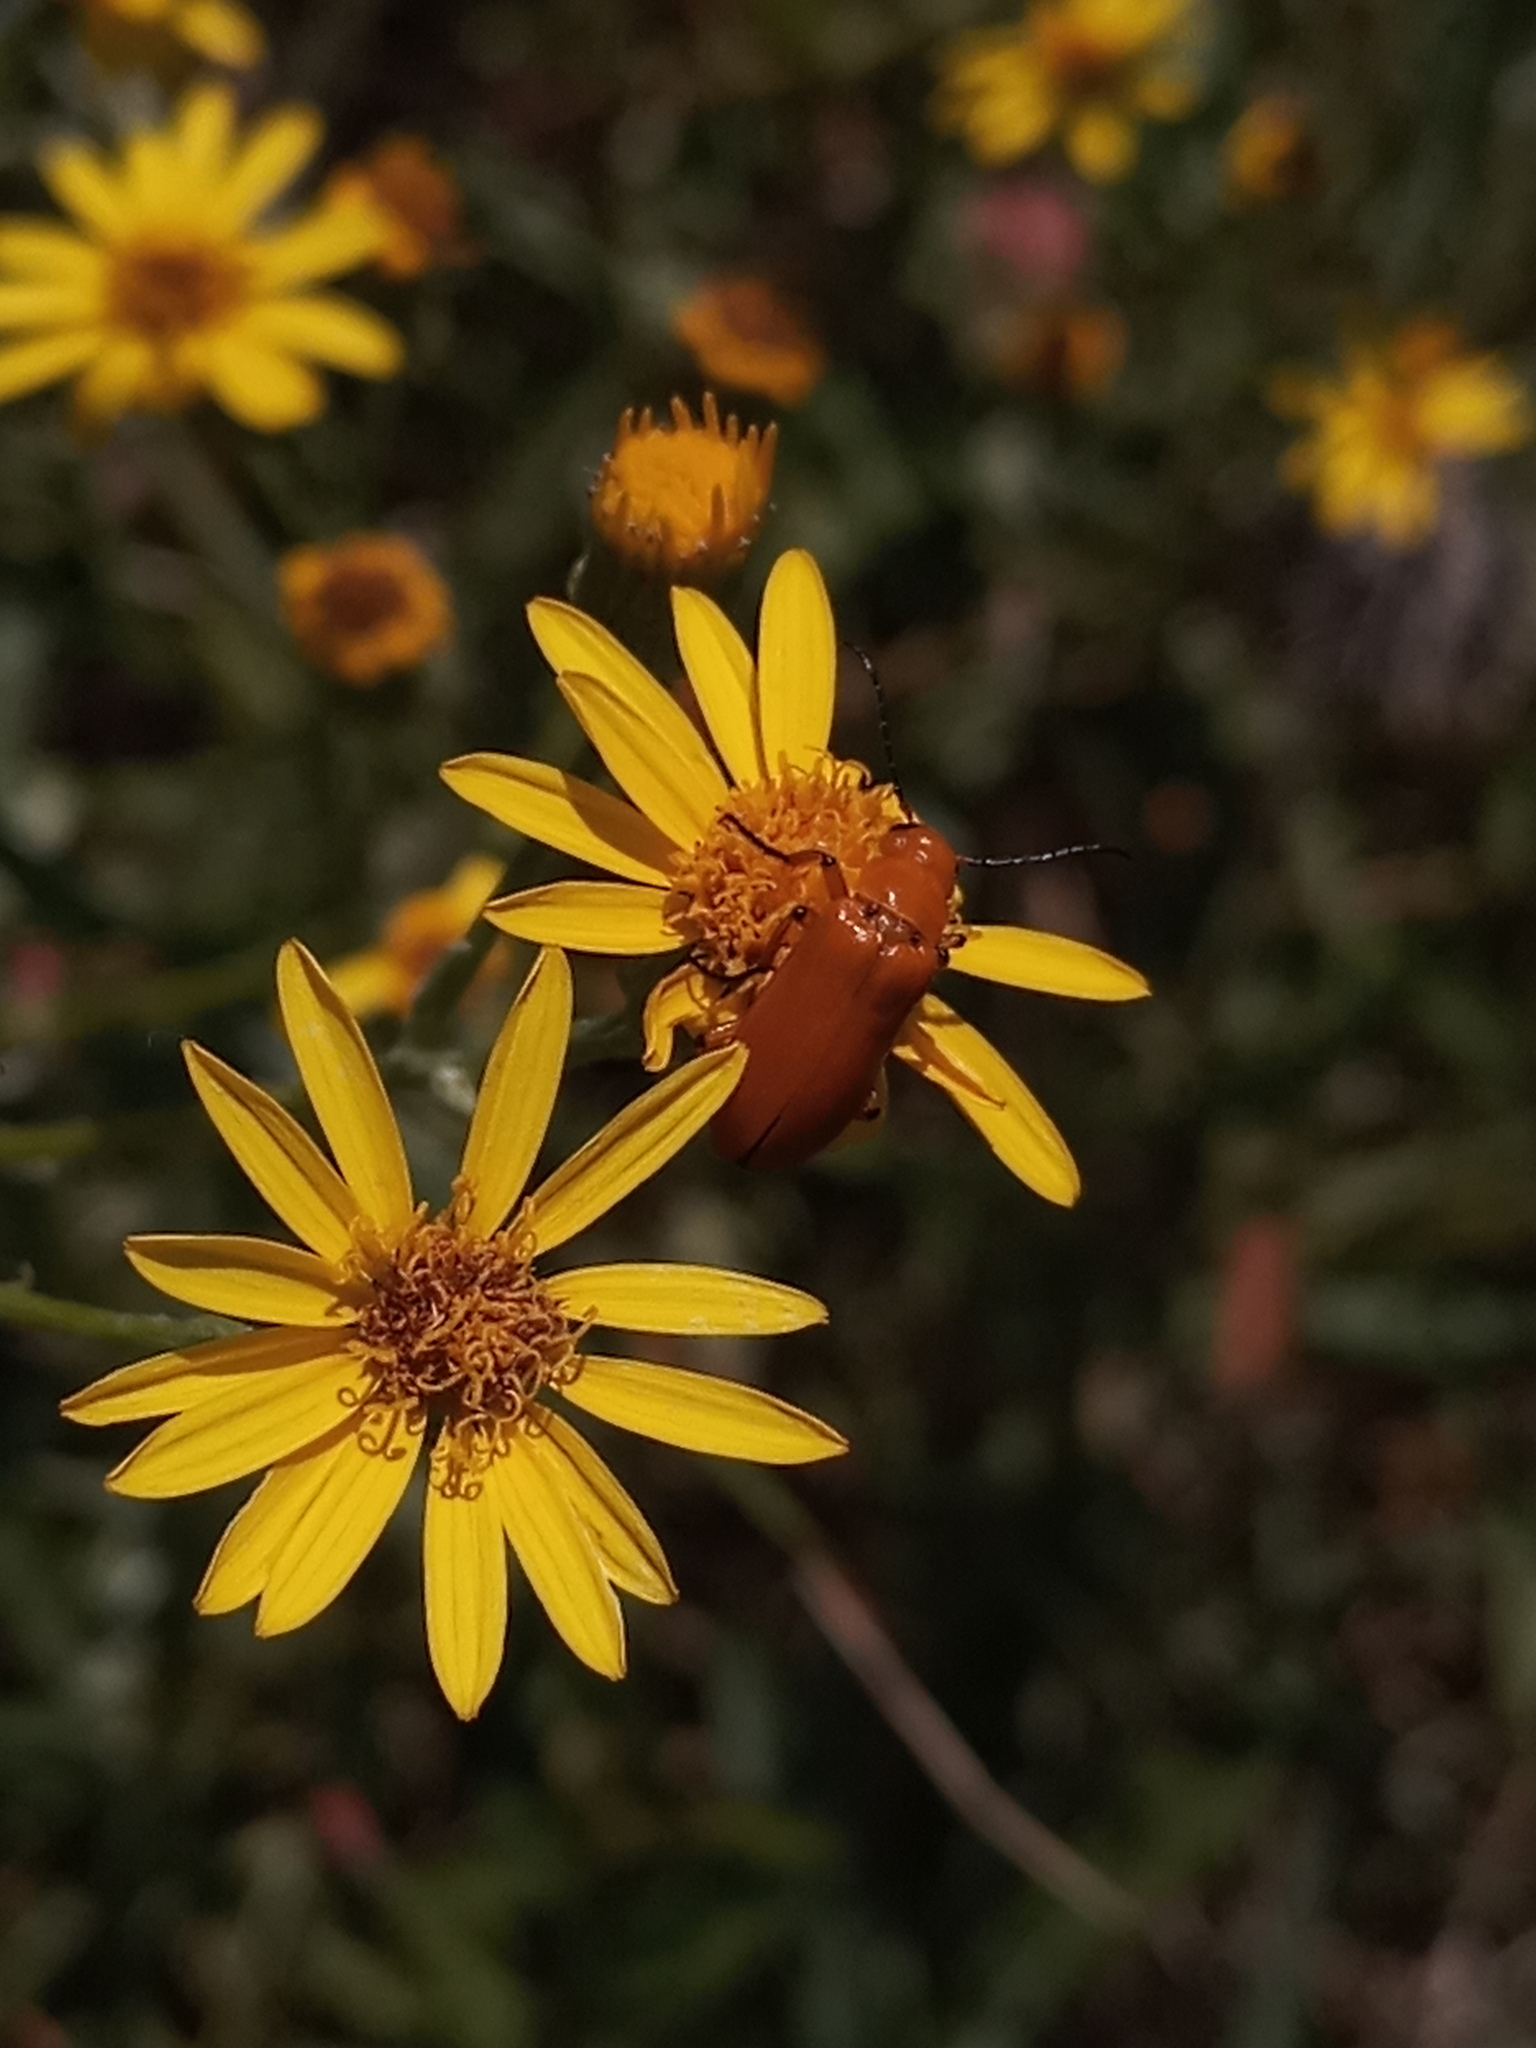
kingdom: Animalia
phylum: Arthropoda
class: Insecta
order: Coleoptera
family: Meloidae
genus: Nemognatha
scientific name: Nemognatha
